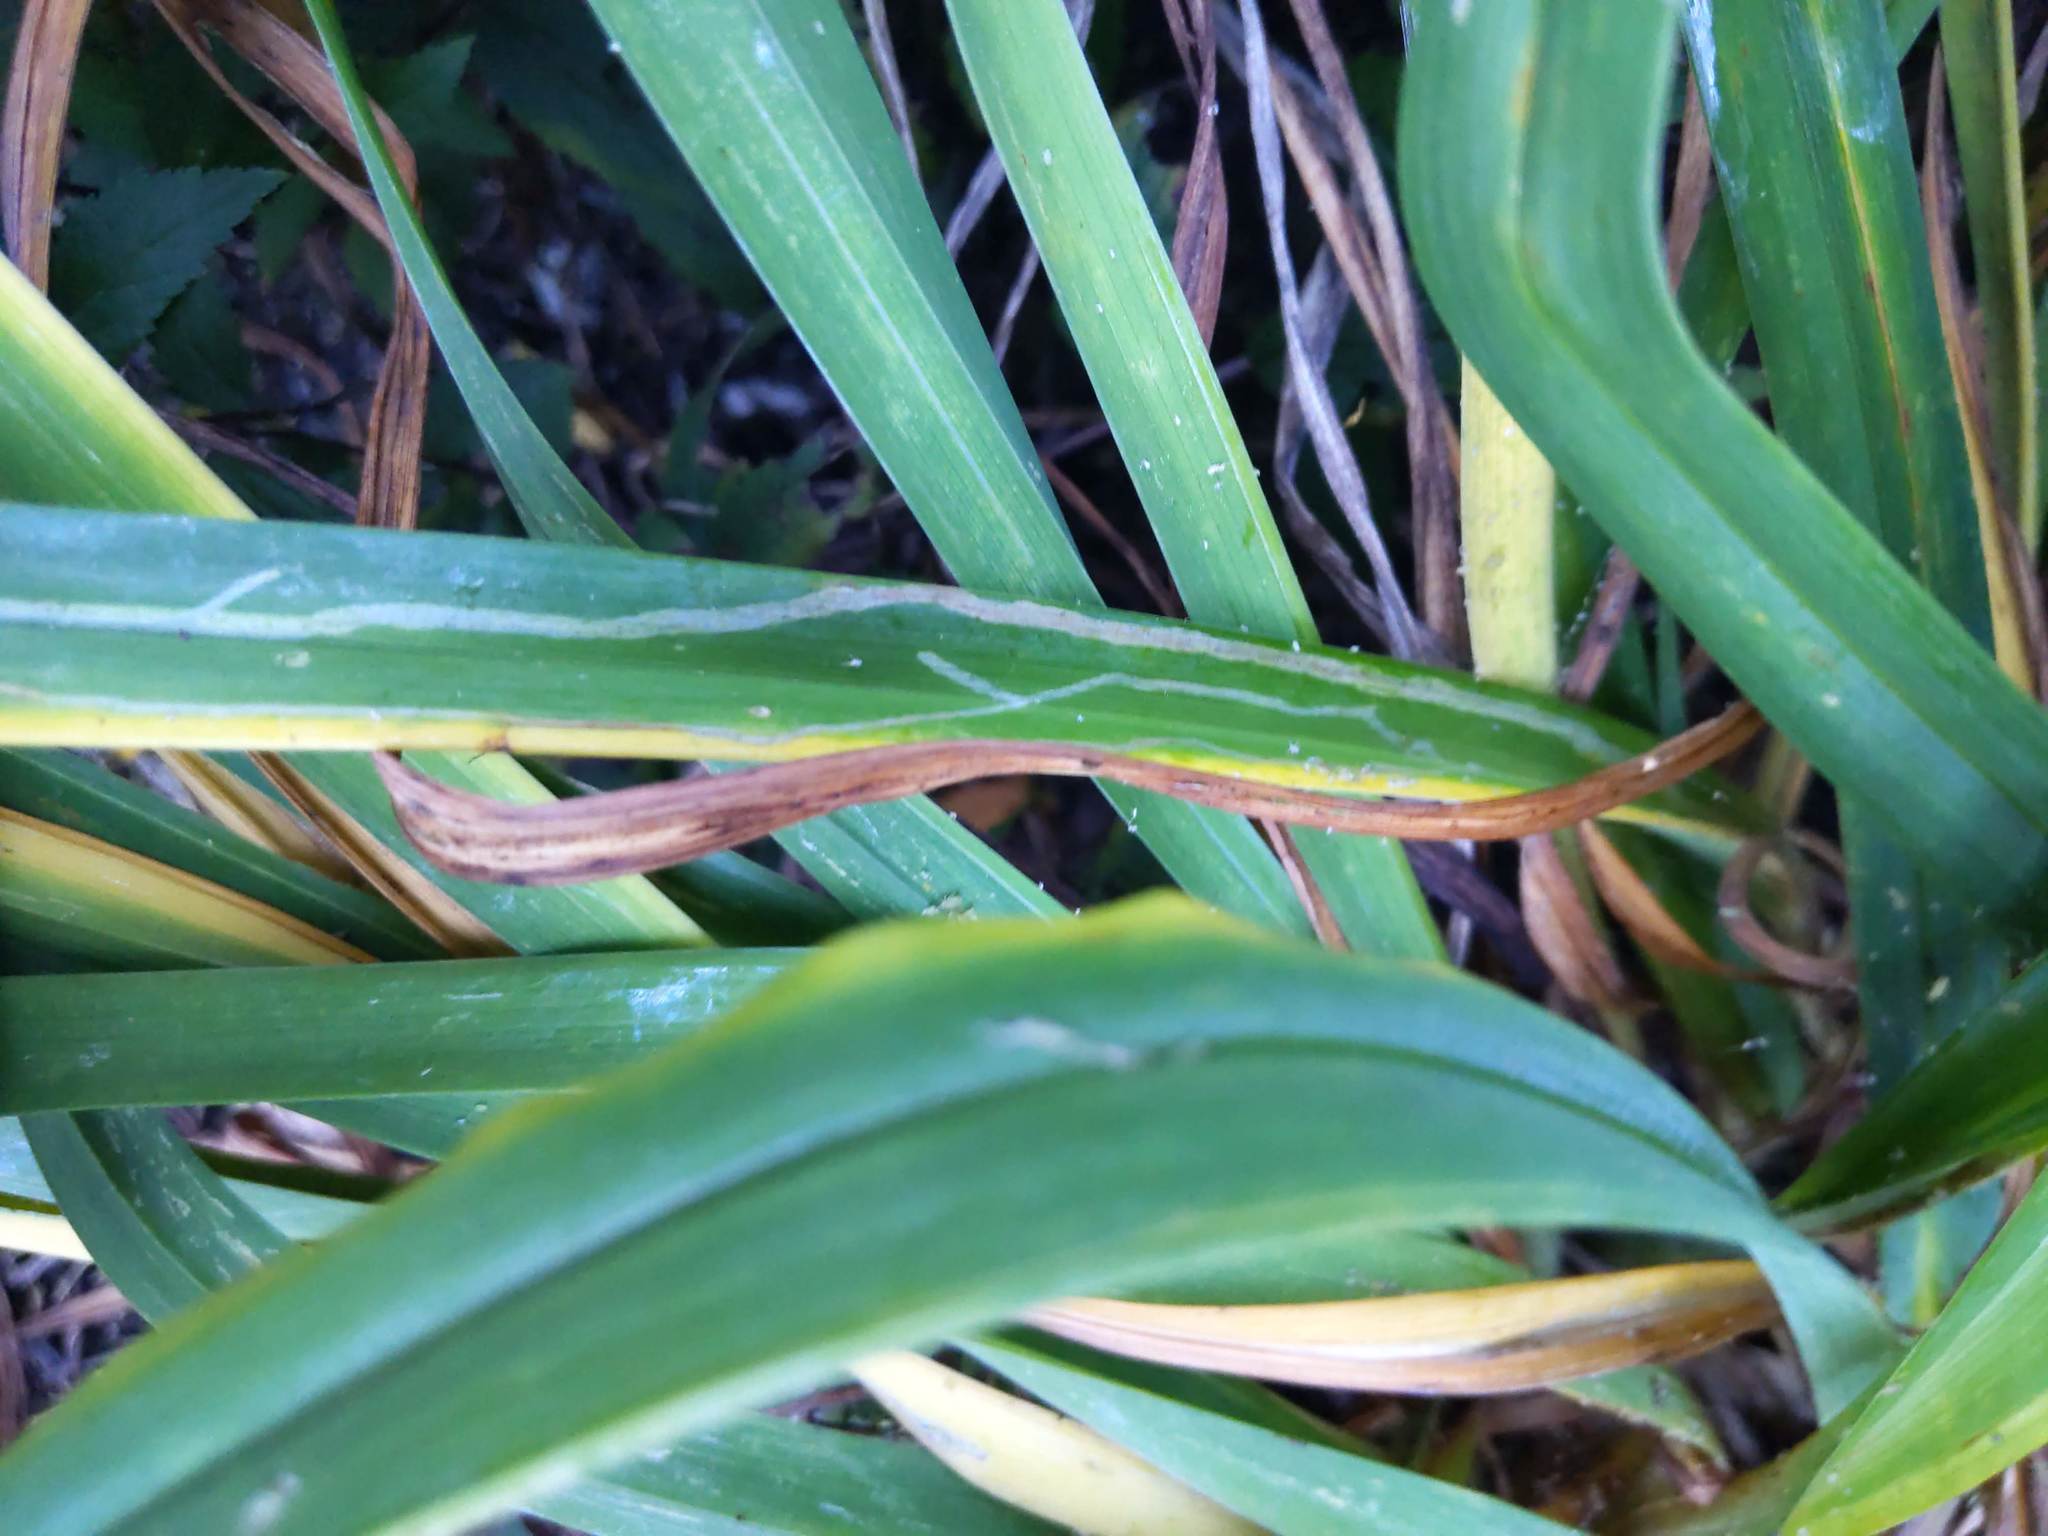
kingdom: Animalia
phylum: Arthropoda
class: Insecta
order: Diptera
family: Agromyzidae
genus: Ophiomyia
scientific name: Ophiomyia kwansonis
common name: Daylily leafminer
